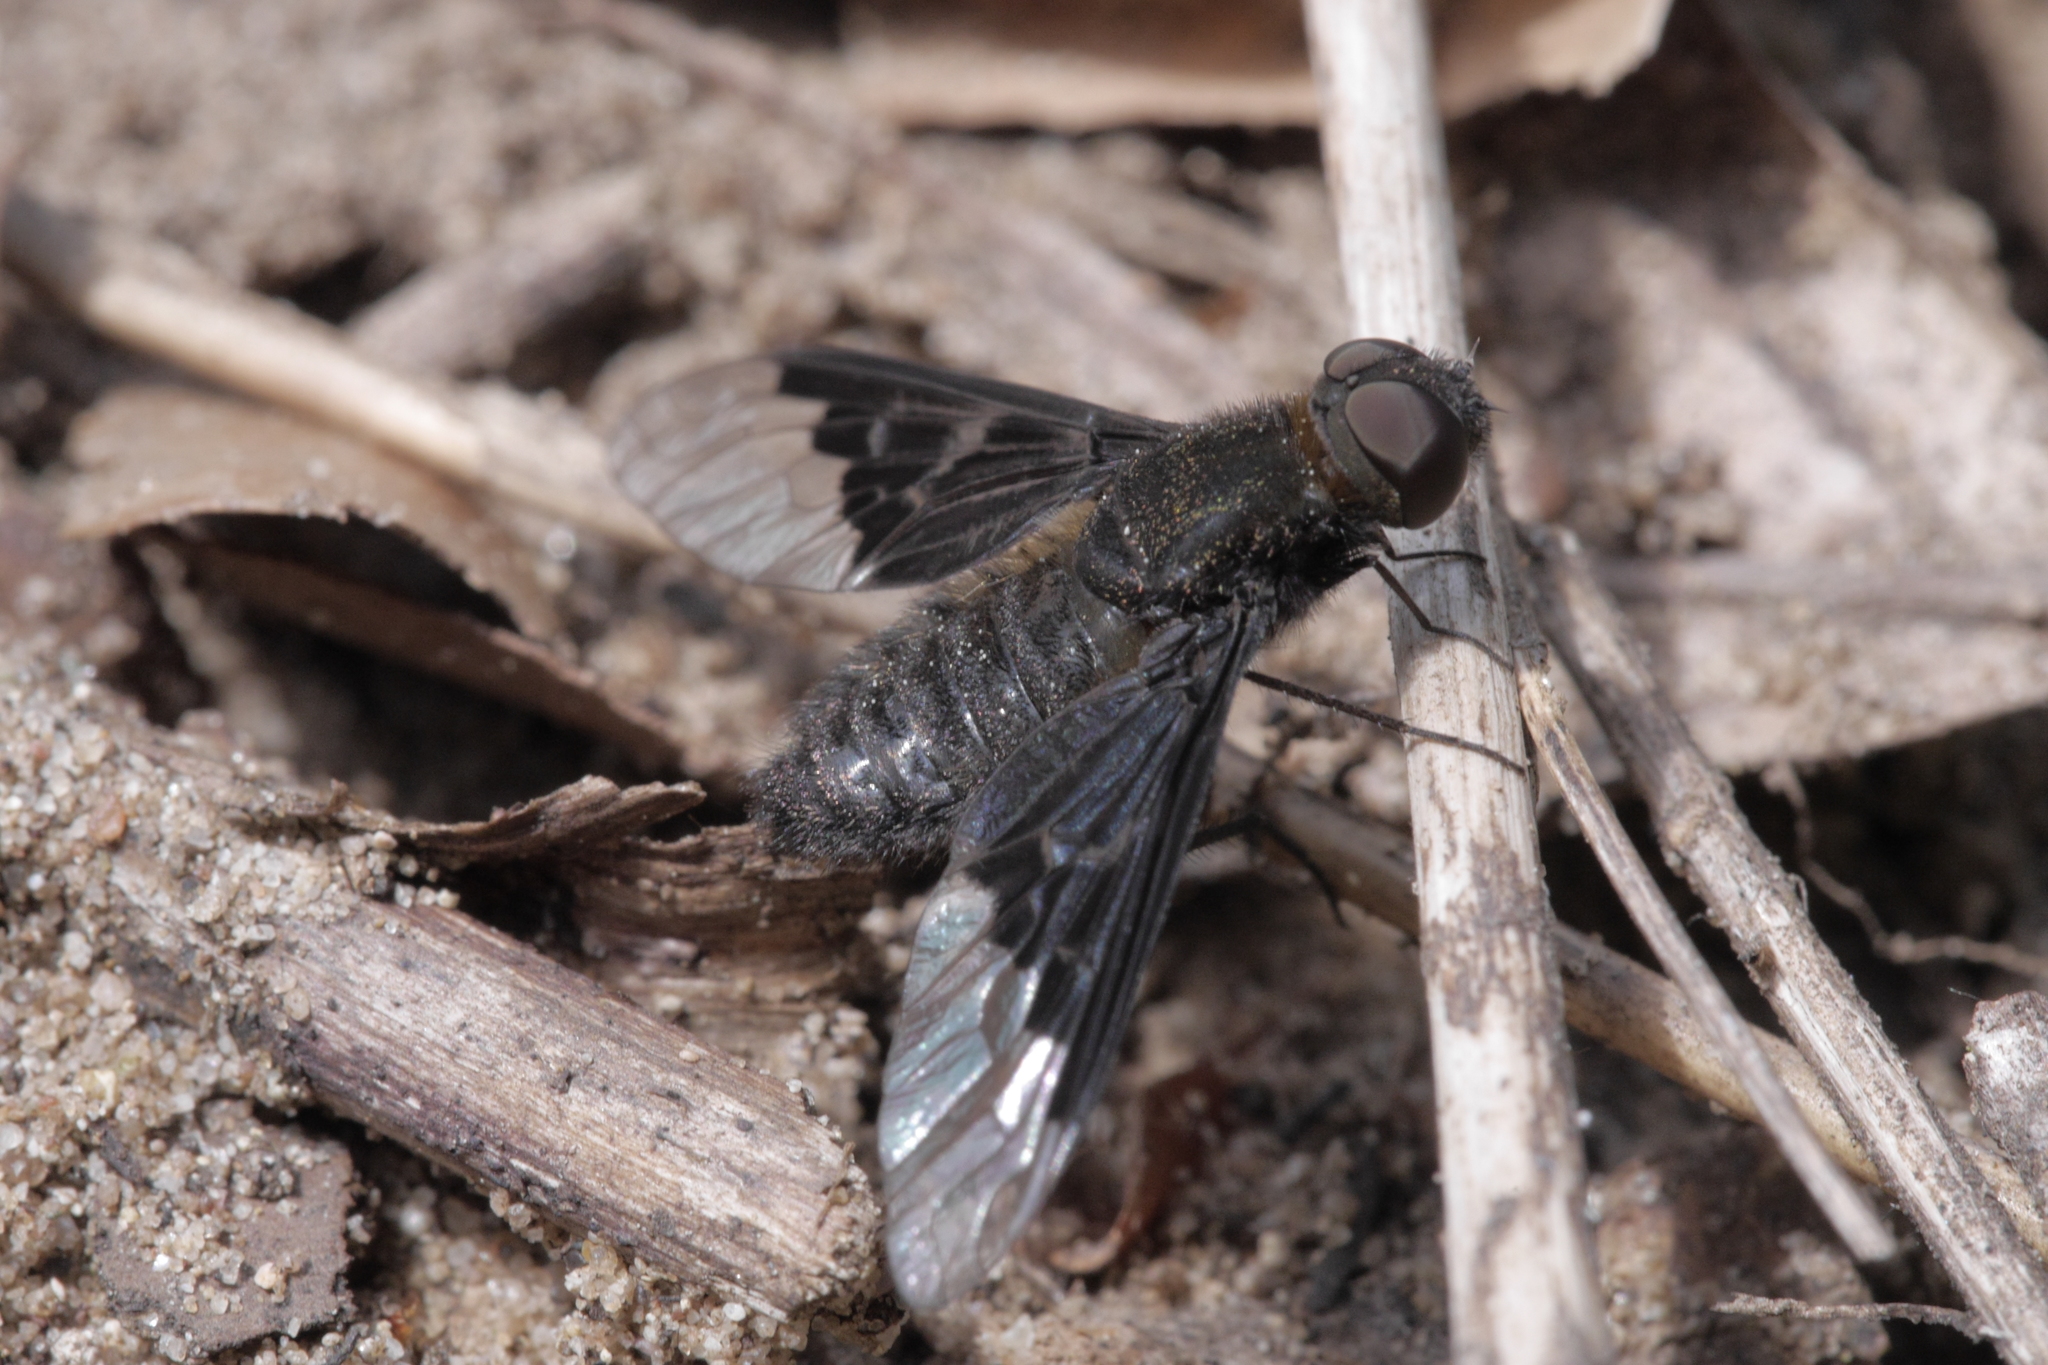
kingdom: Animalia
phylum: Arthropoda
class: Insecta
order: Diptera
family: Bombyliidae
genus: Hemipenthes
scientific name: Hemipenthes morio
